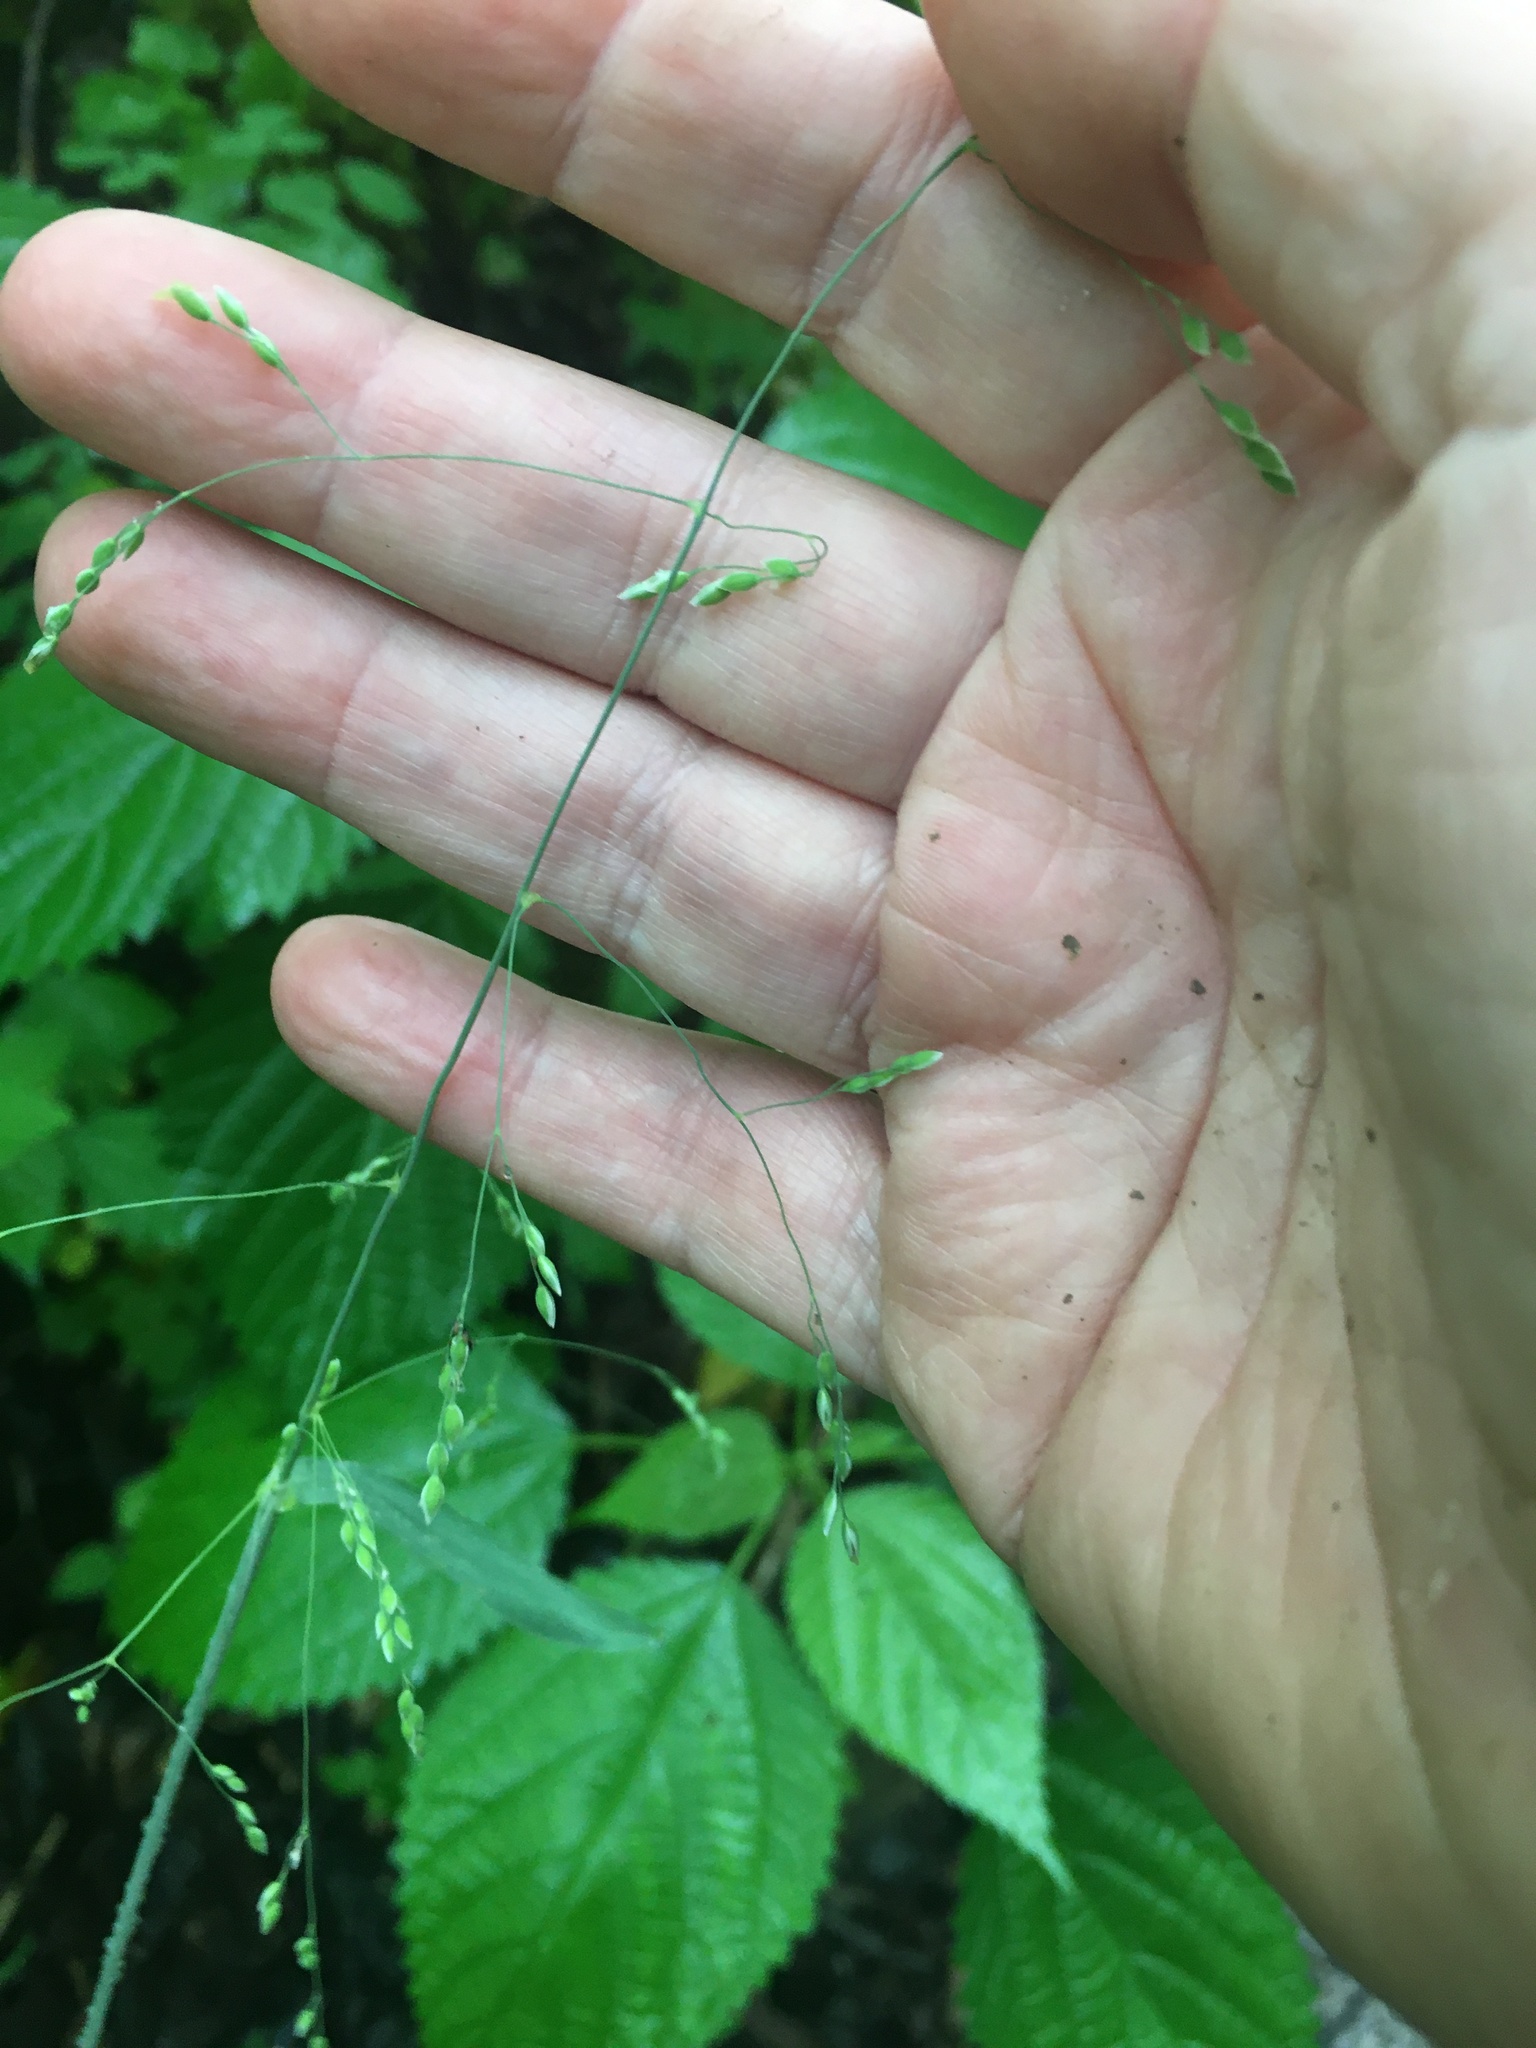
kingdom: Plantae
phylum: Tracheophyta
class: Liliopsida
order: Poales
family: Poaceae
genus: Milium
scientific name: Milium effusum
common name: Wood millet
